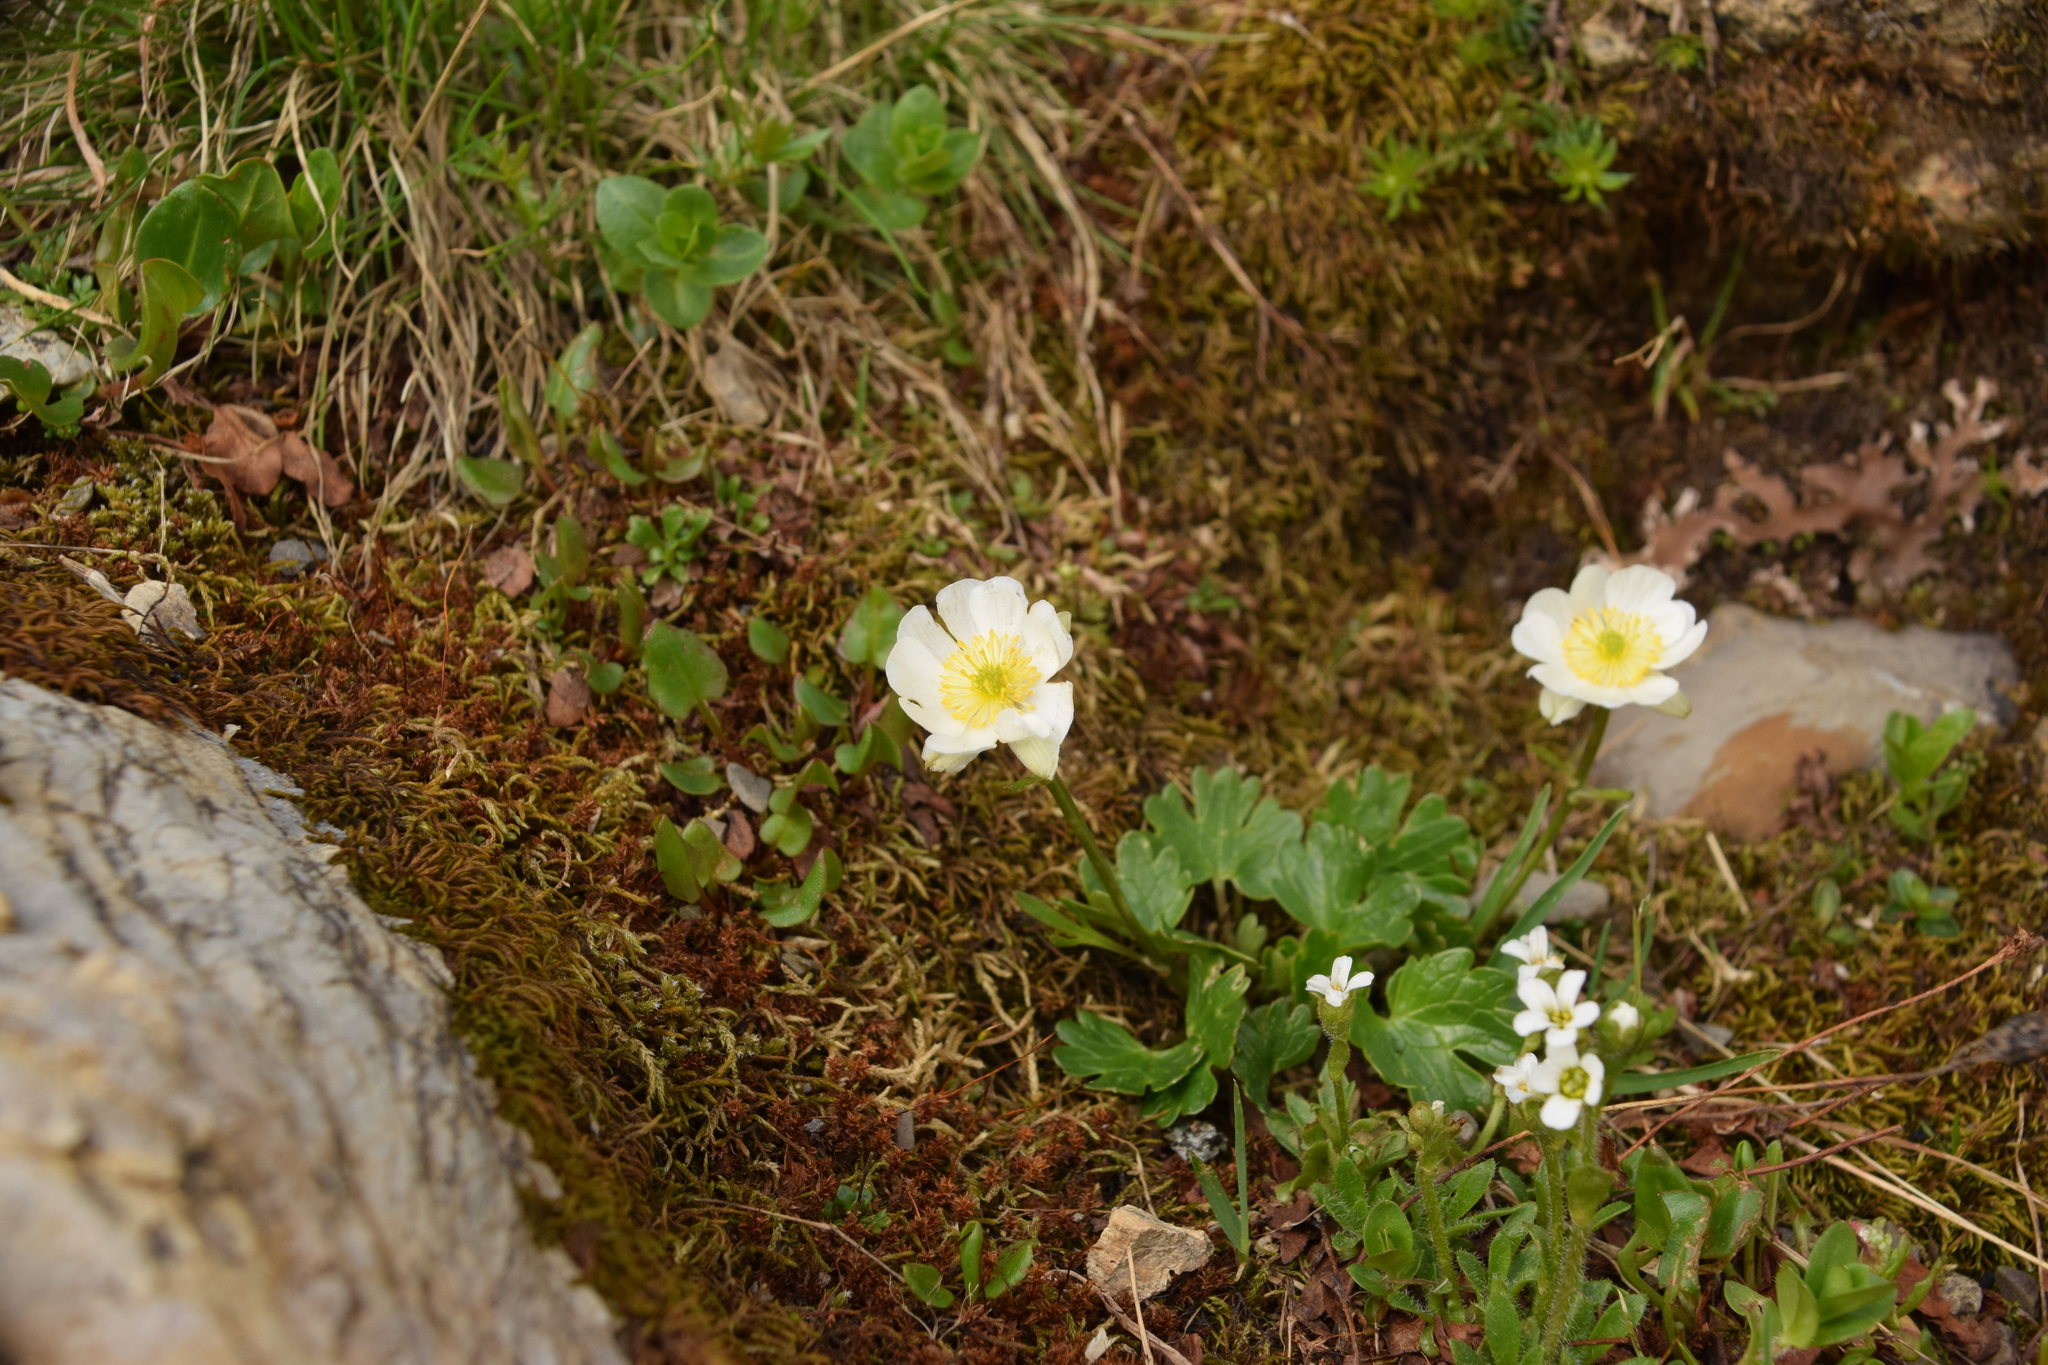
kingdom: Plantae
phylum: Tracheophyta
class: Magnoliopsida
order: Ranunculales
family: Ranunculaceae
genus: Ranunculus
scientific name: Ranunculus alpestris
